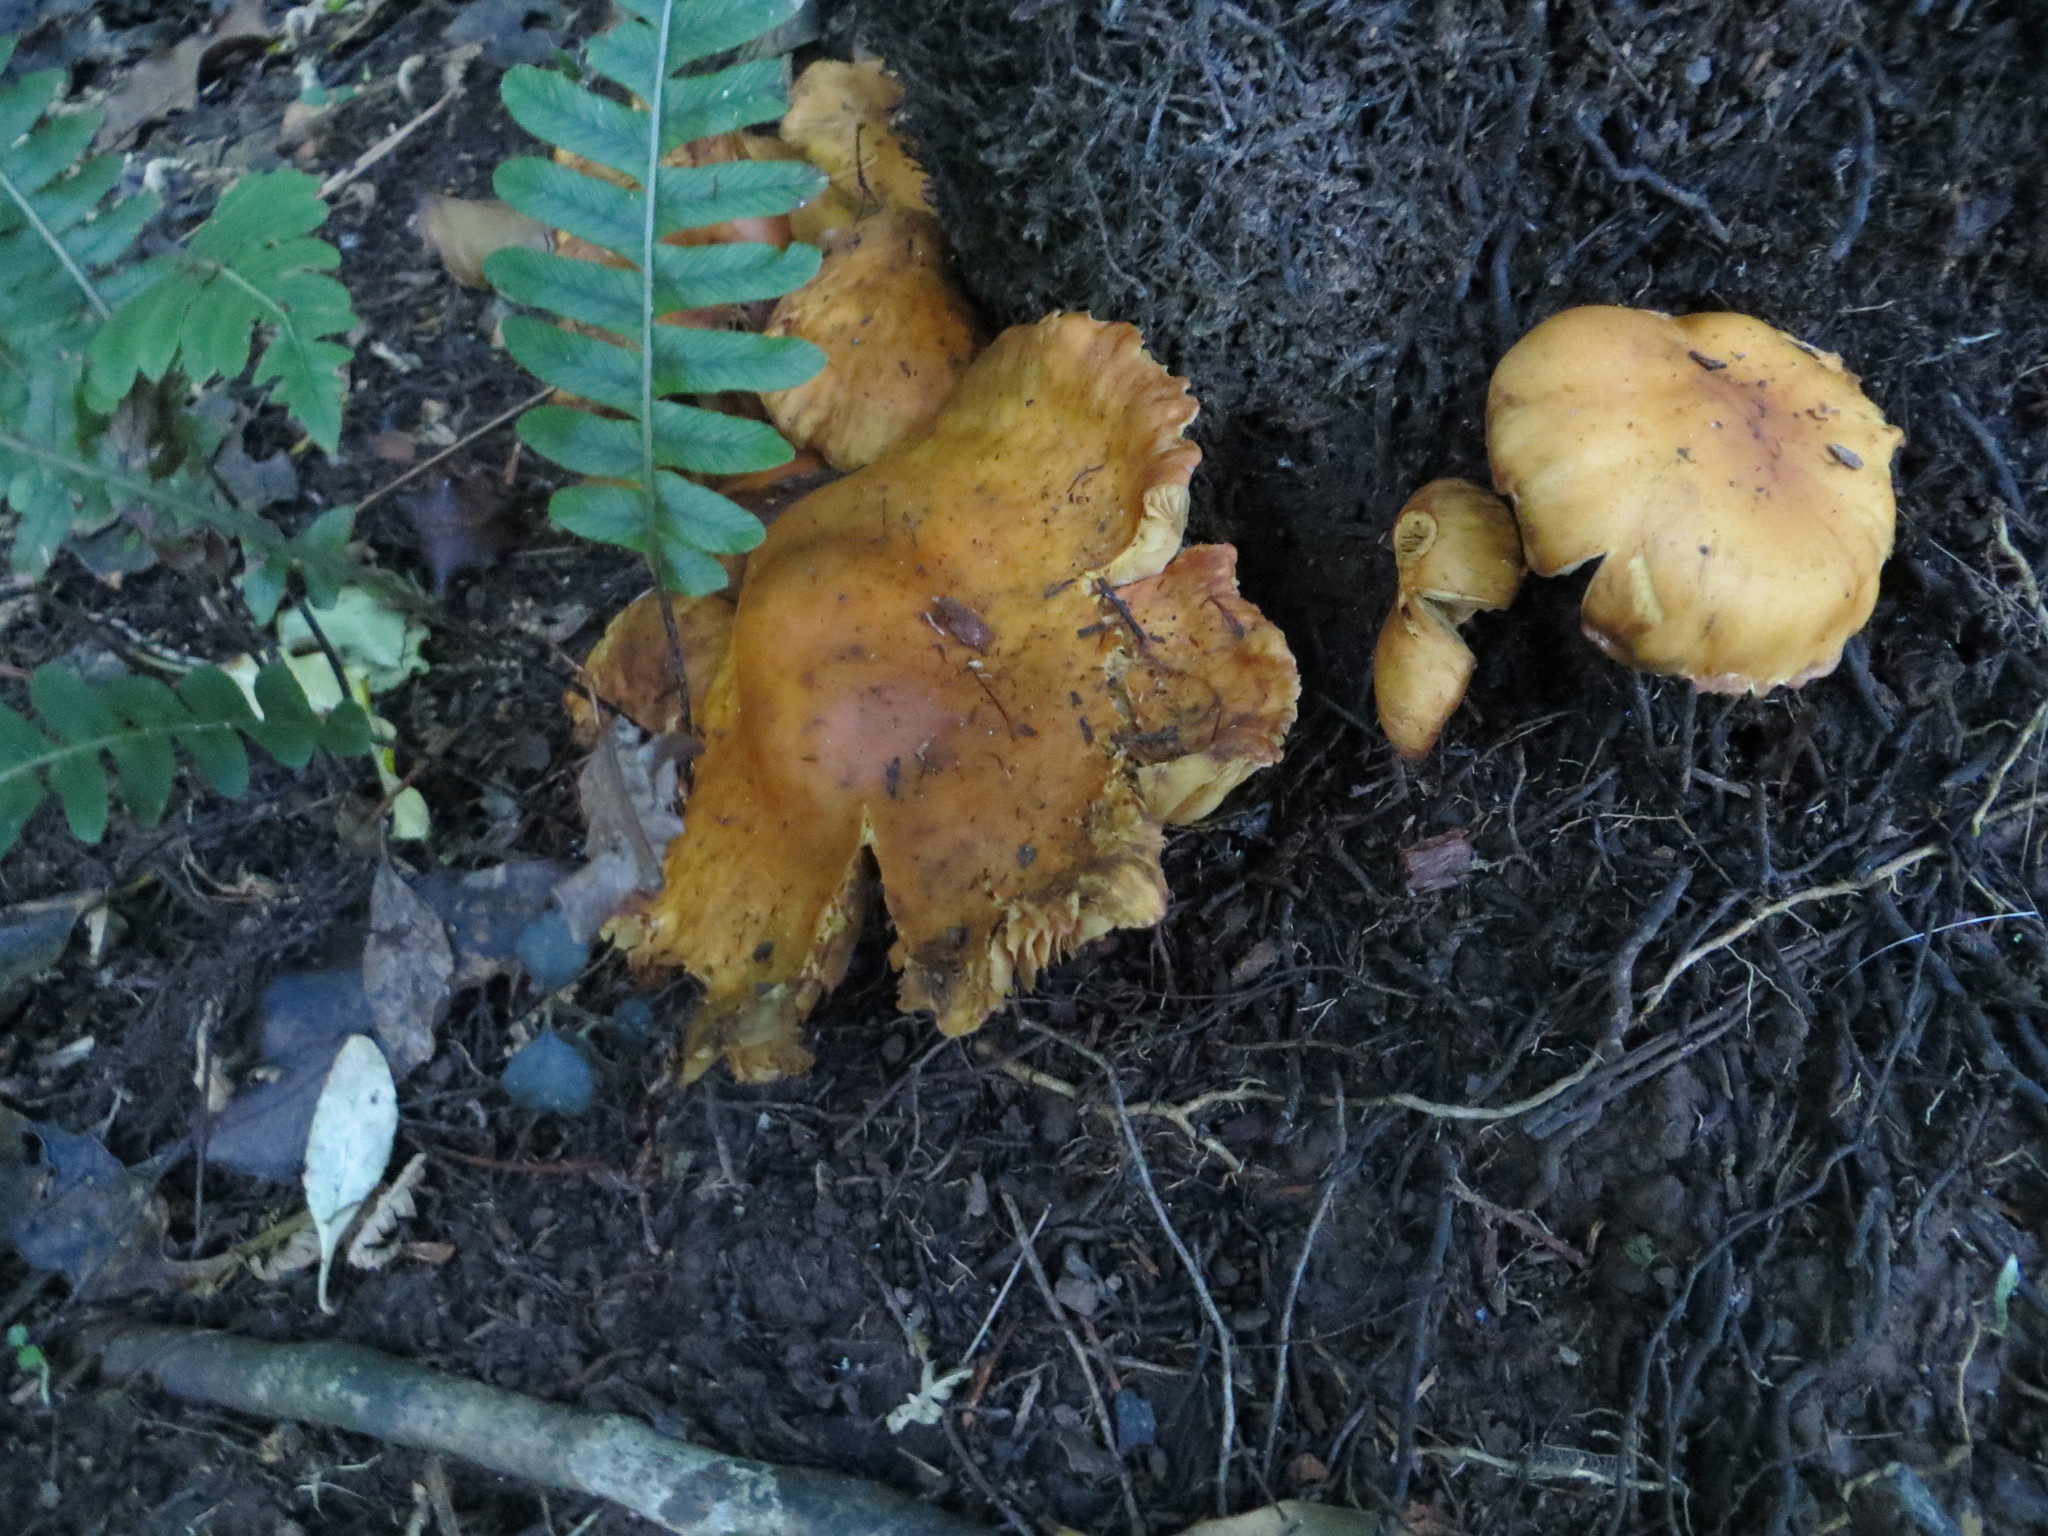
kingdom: Fungi
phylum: Basidiomycota
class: Agaricomycetes
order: Agaricales
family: Hymenogastraceae
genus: Gymnopilus
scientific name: Gymnopilus junonius
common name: Spectacular rustgill
